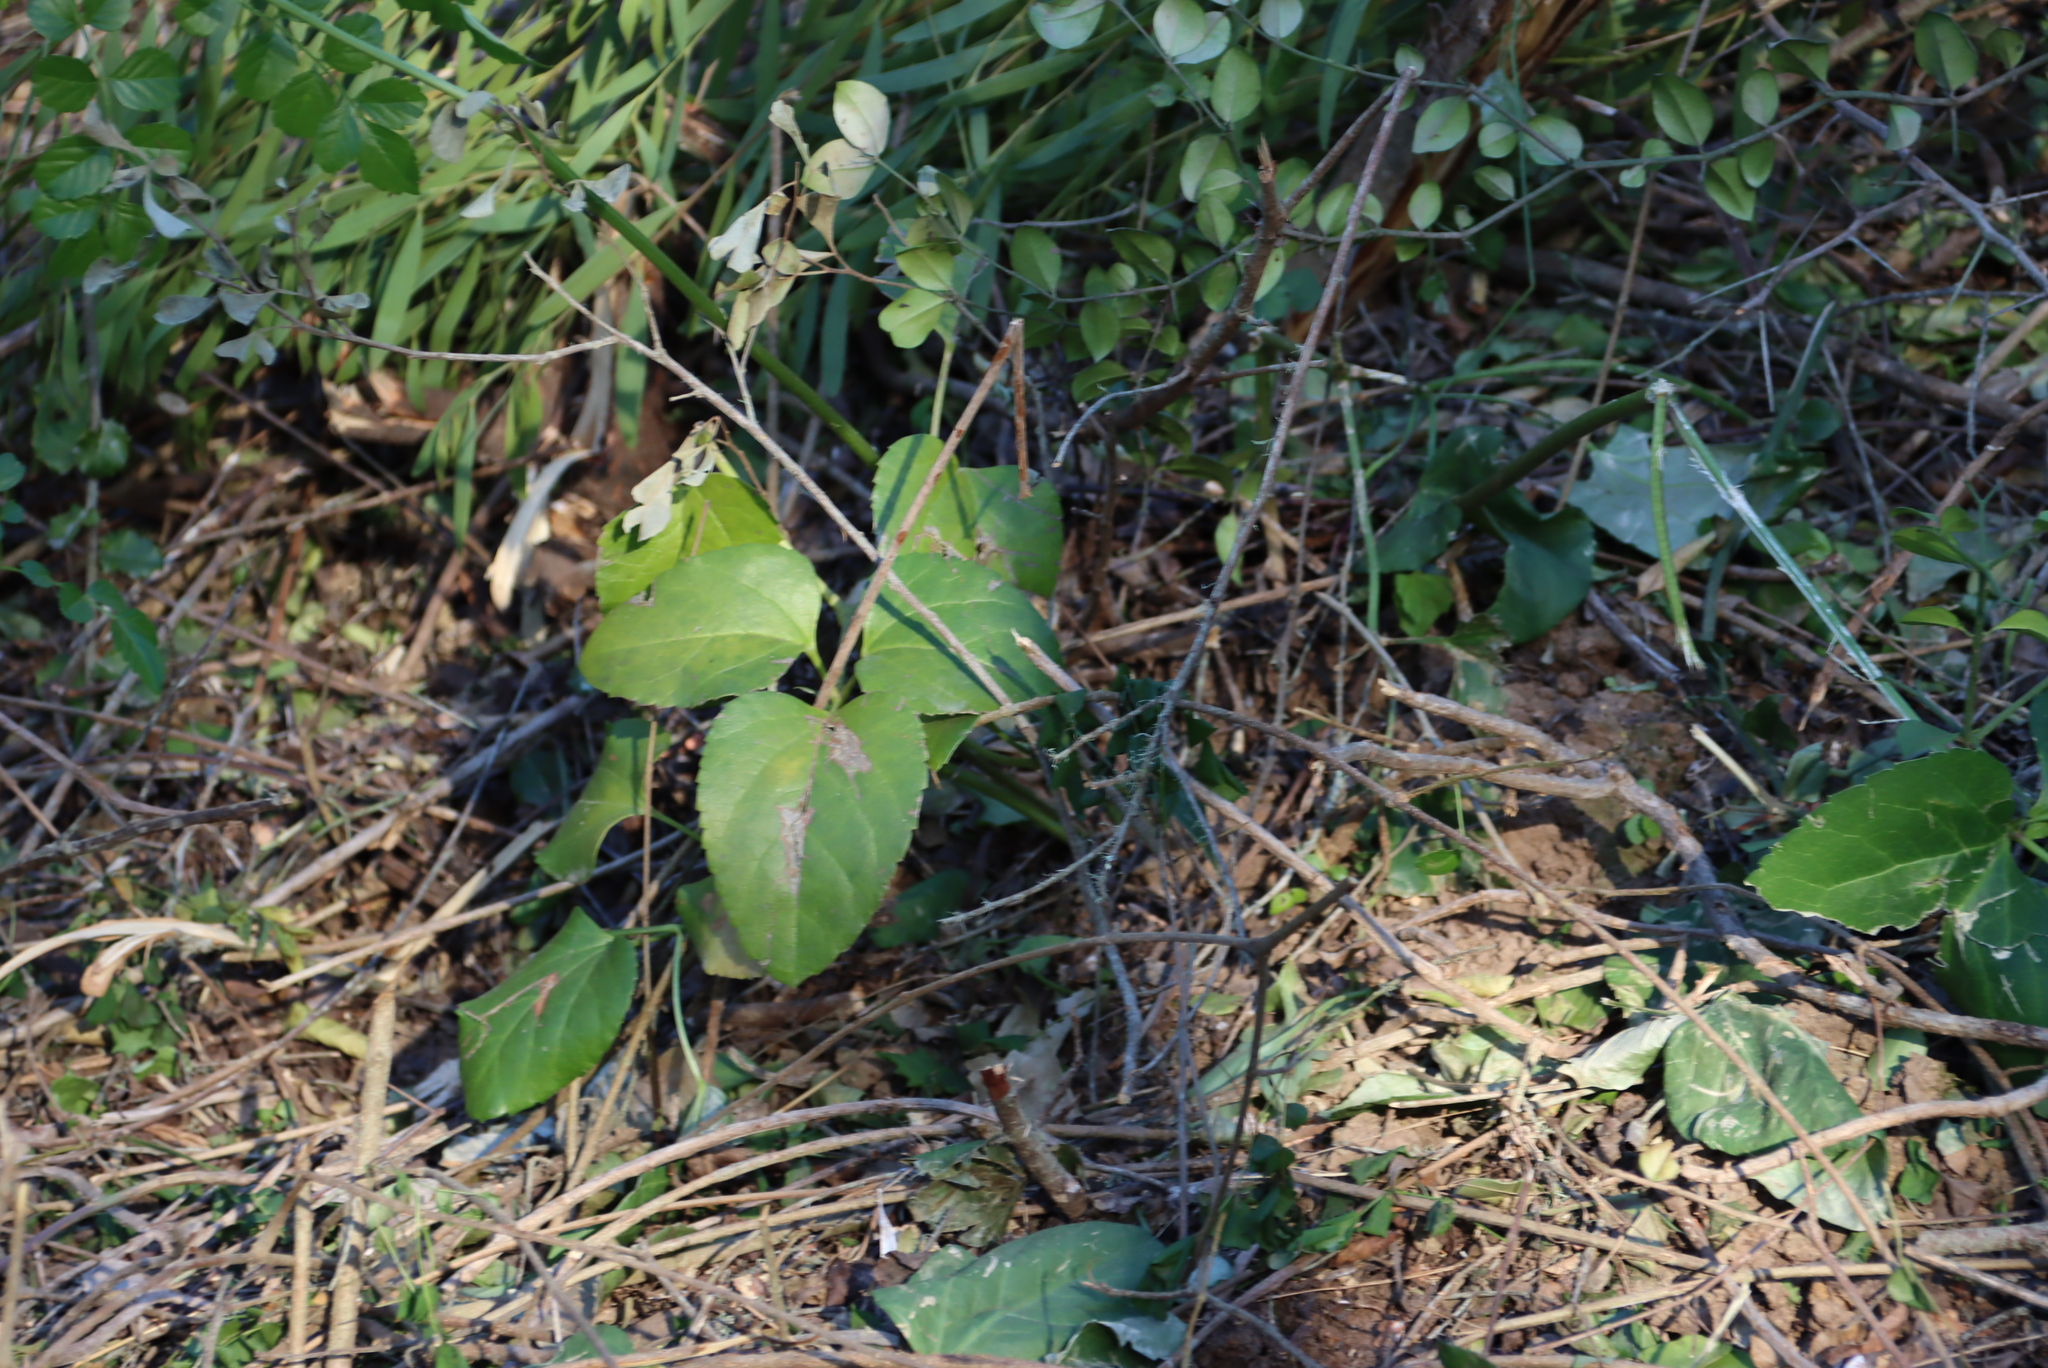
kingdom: Plantae
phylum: Tracheophyta
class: Magnoliopsida
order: Ranunculales
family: Ranunculaceae
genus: Knowltonia
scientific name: Knowltonia vesicatoria
